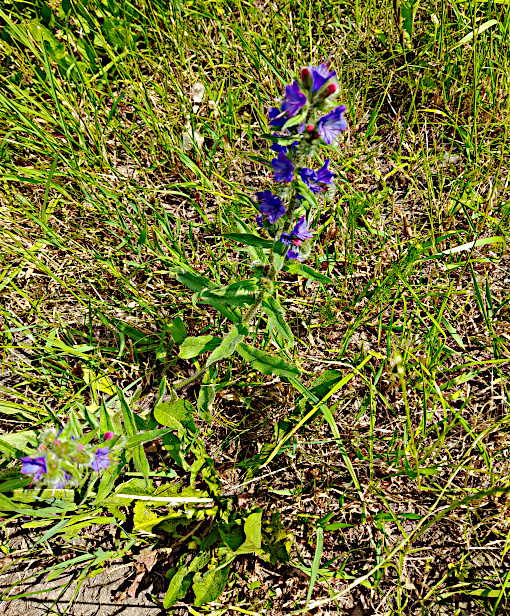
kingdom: Plantae
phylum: Tracheophyta
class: Magnoliopsida
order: Boraginales
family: Boraginaceae
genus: Echium
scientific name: Echium vulgare
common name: Common viper's bugloss
